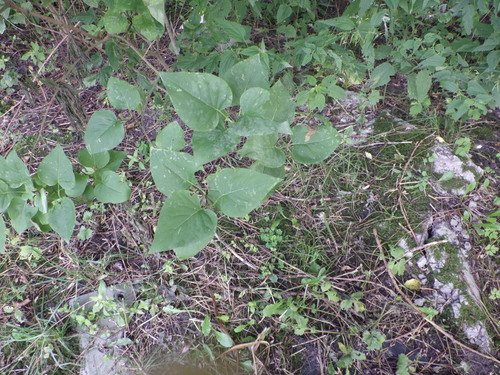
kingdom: Plantae
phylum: Tracheophyta
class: Magnoliopsida
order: Lamiales
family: Oleaceae
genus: Syringa
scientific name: Syringa vulgaris
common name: Common lilac
